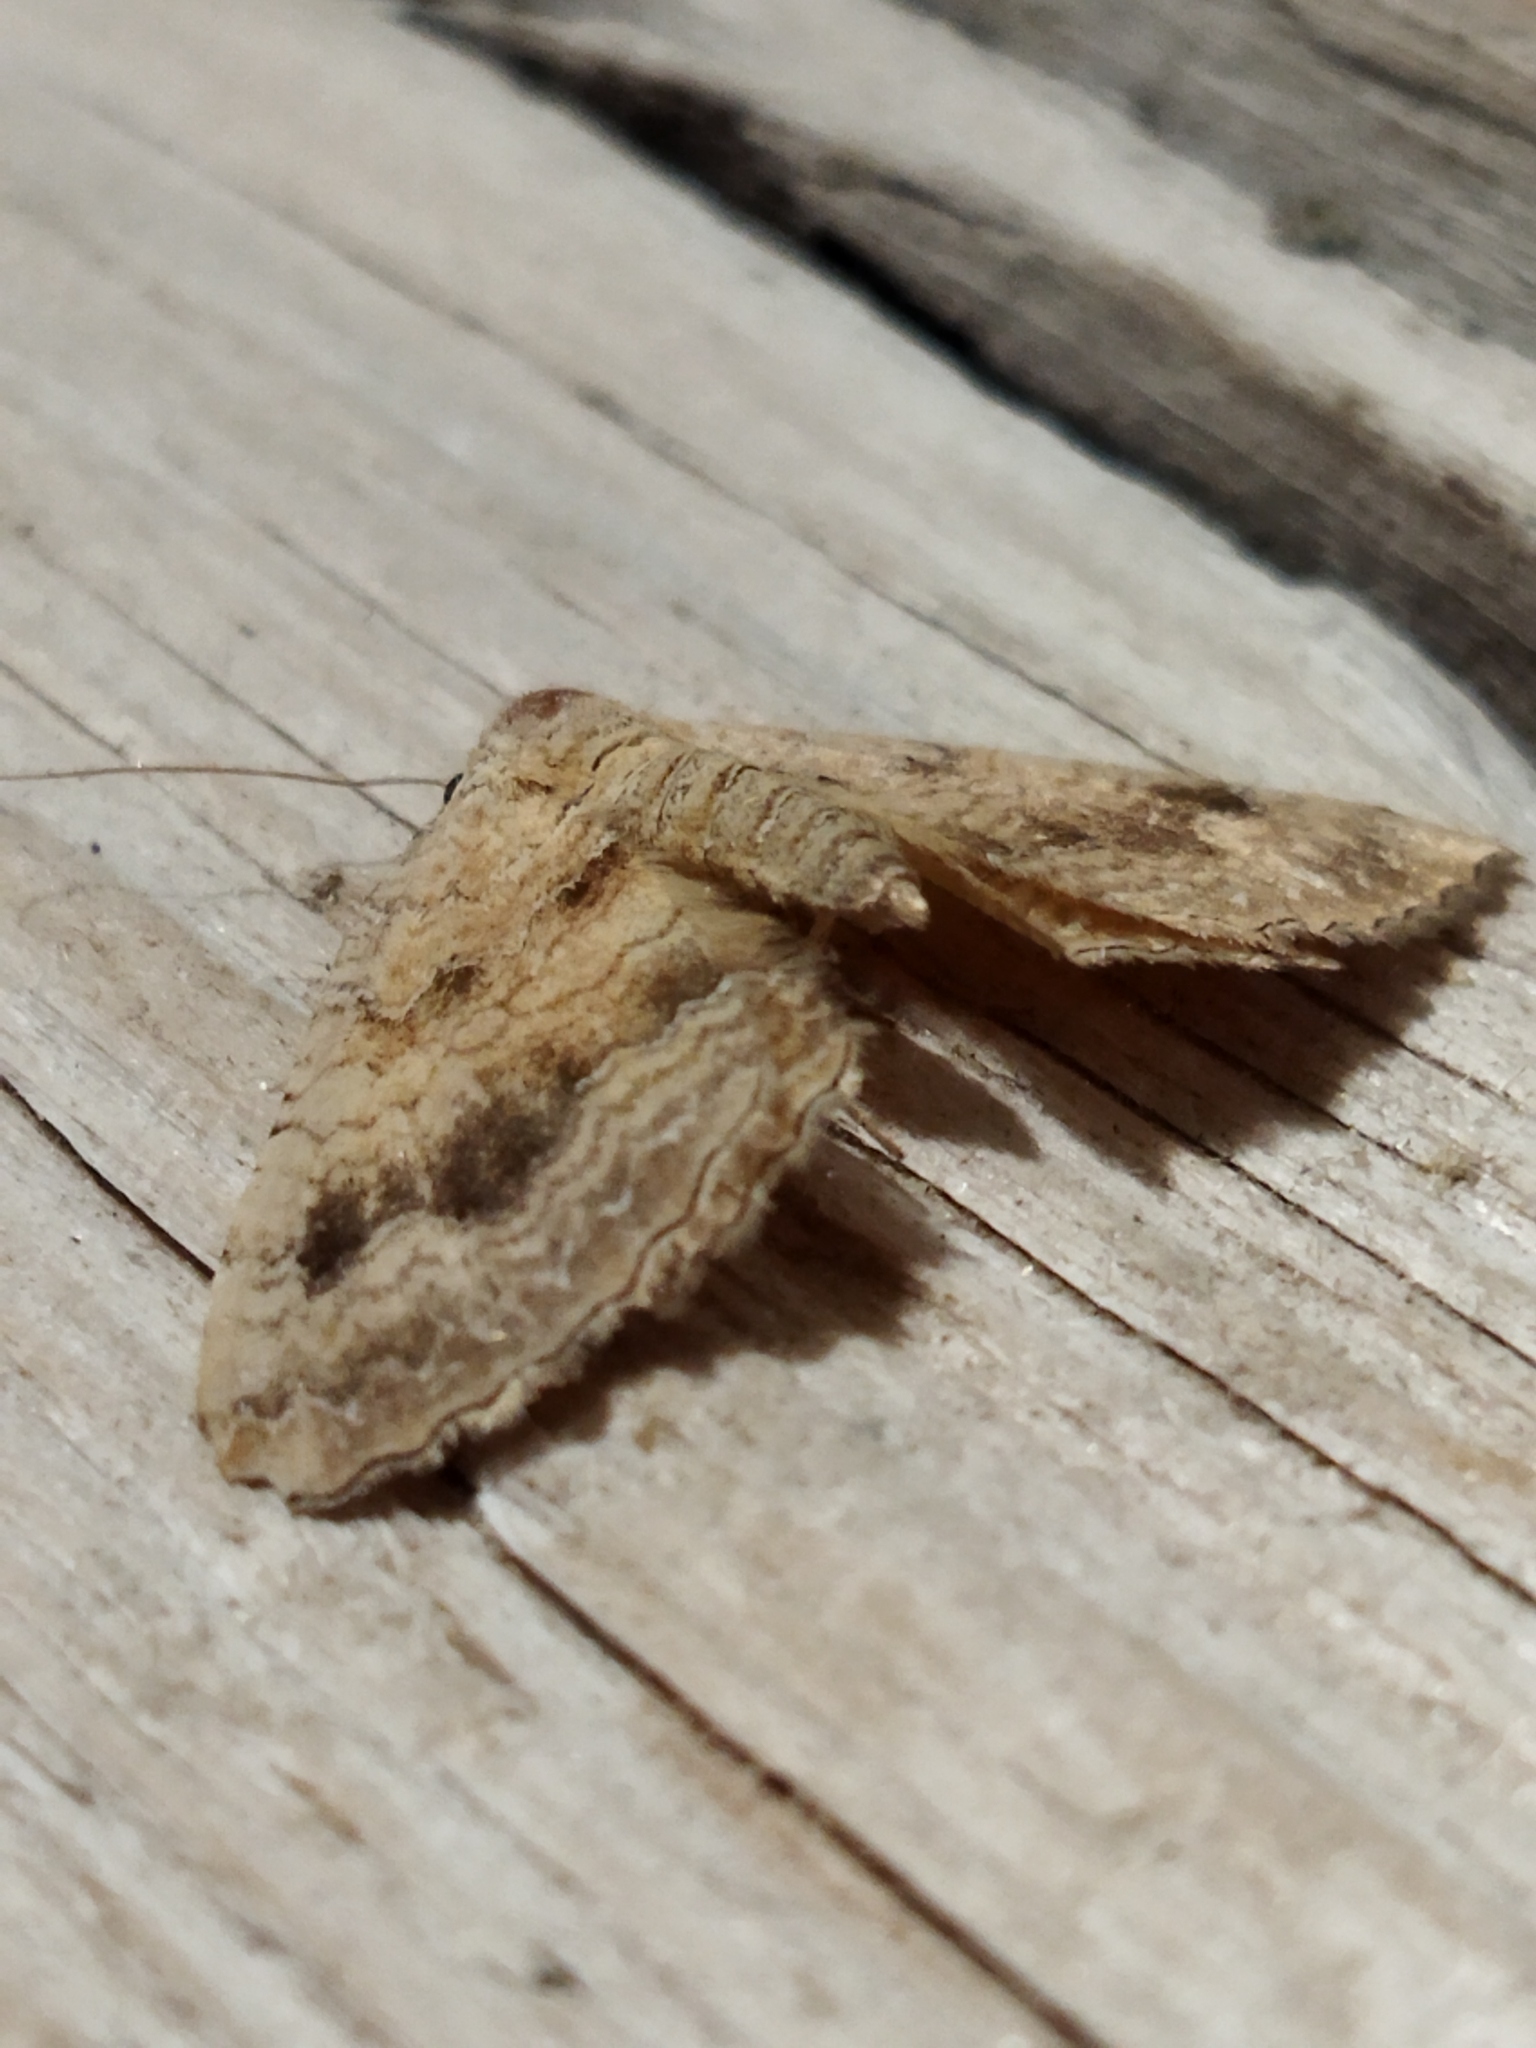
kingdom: Animalia
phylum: Arthropoda
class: Insecta
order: Lepidoptera
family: Geometridae
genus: Camptogramma
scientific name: Camptogramma bilineata
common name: Yellow shell
